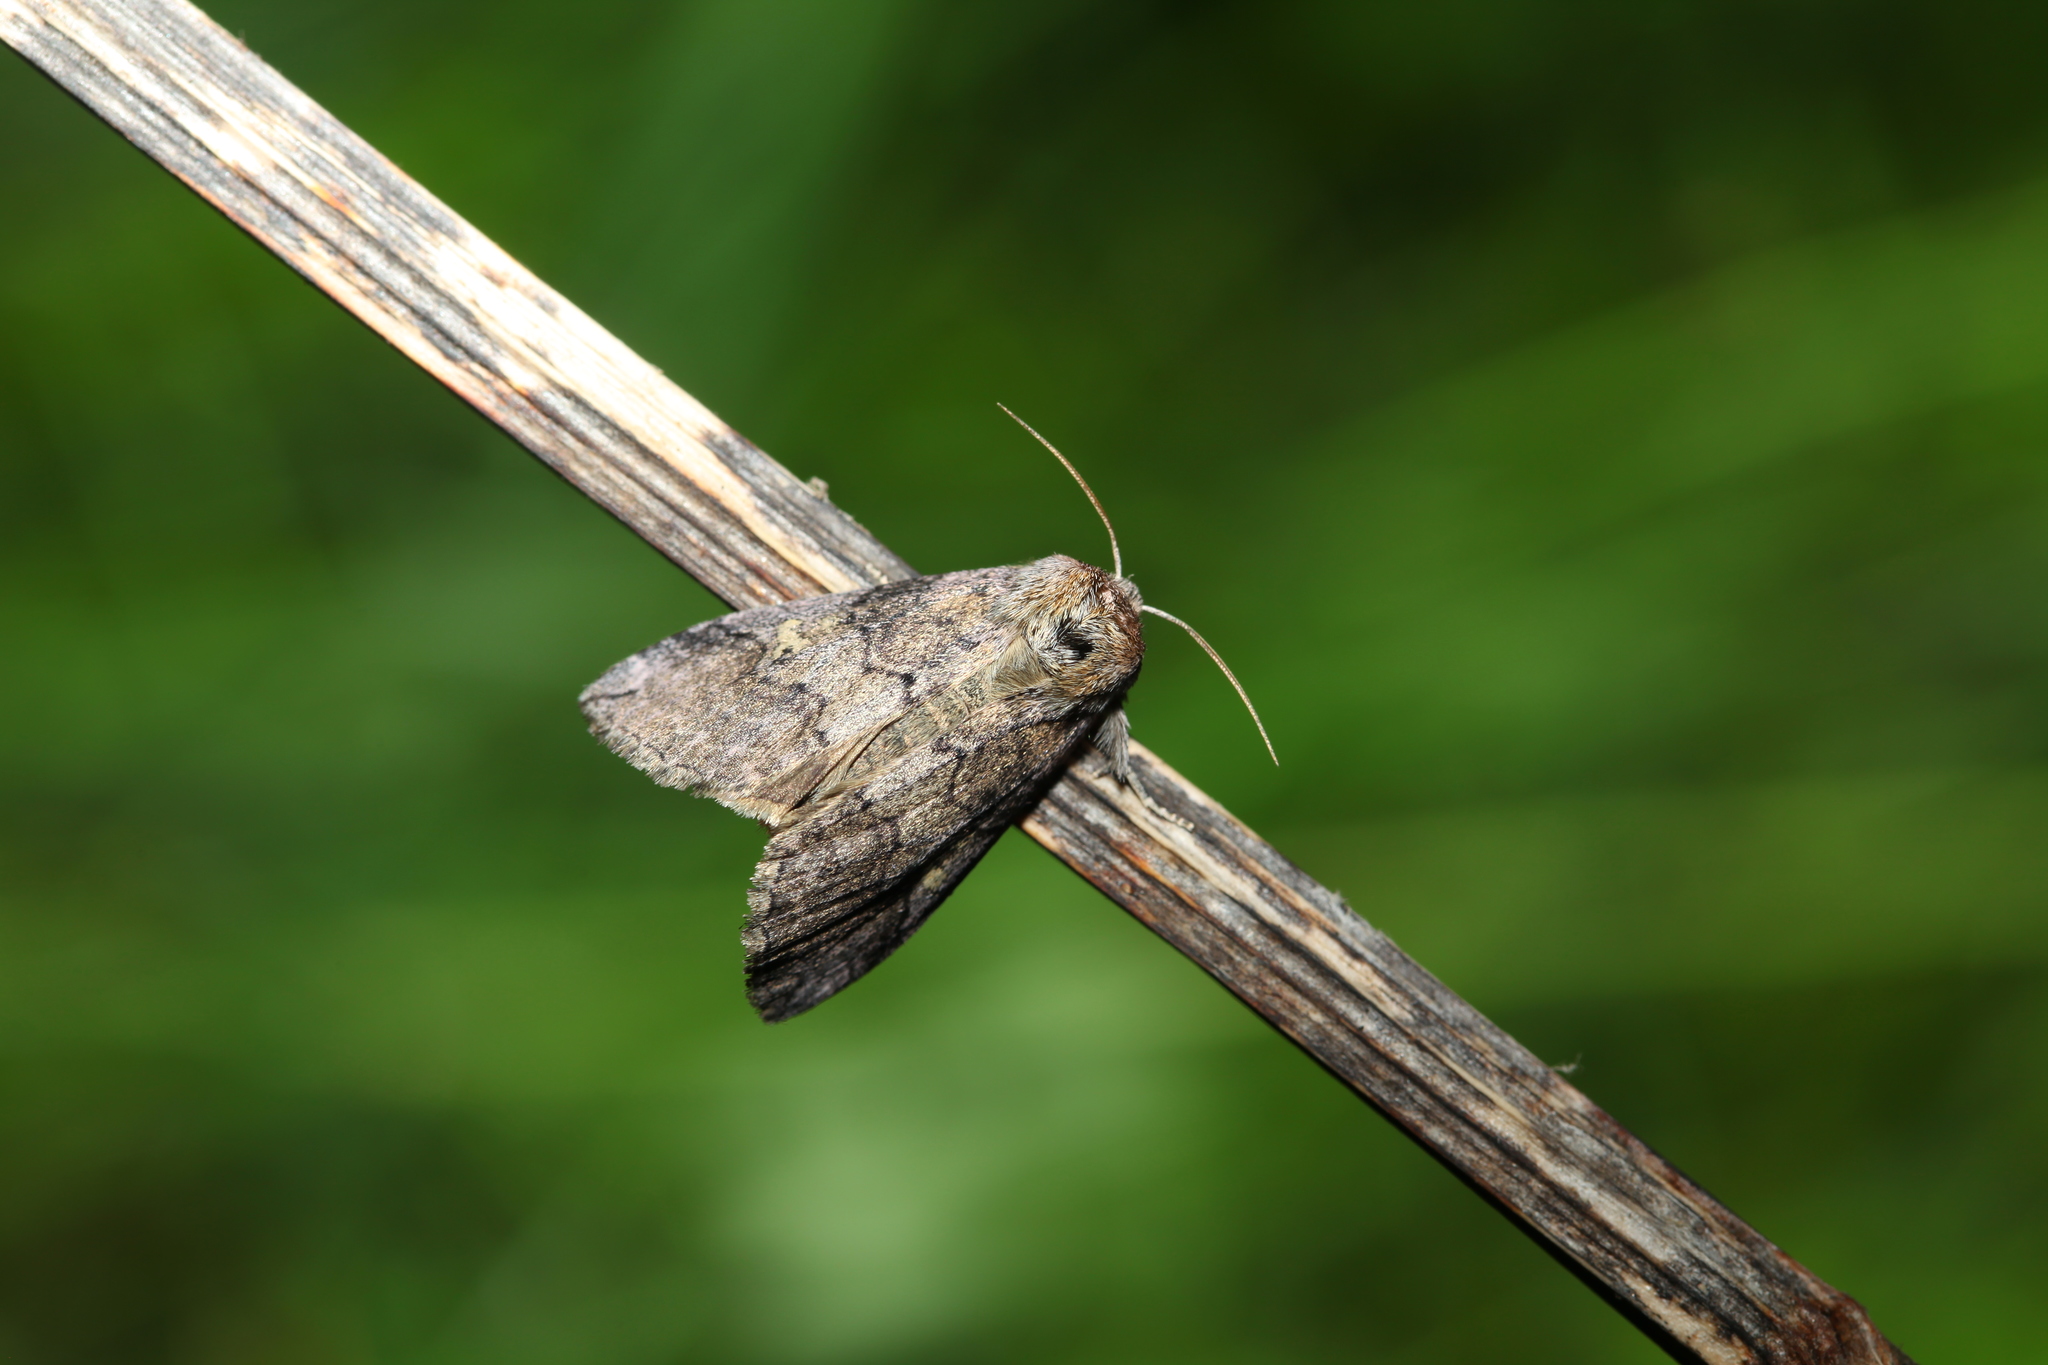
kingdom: Animalia
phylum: Arthropoda
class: Insecta
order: Lepidoptera
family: Drepanidae
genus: Tethea
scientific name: Tethea or
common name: Poplar lutestring
